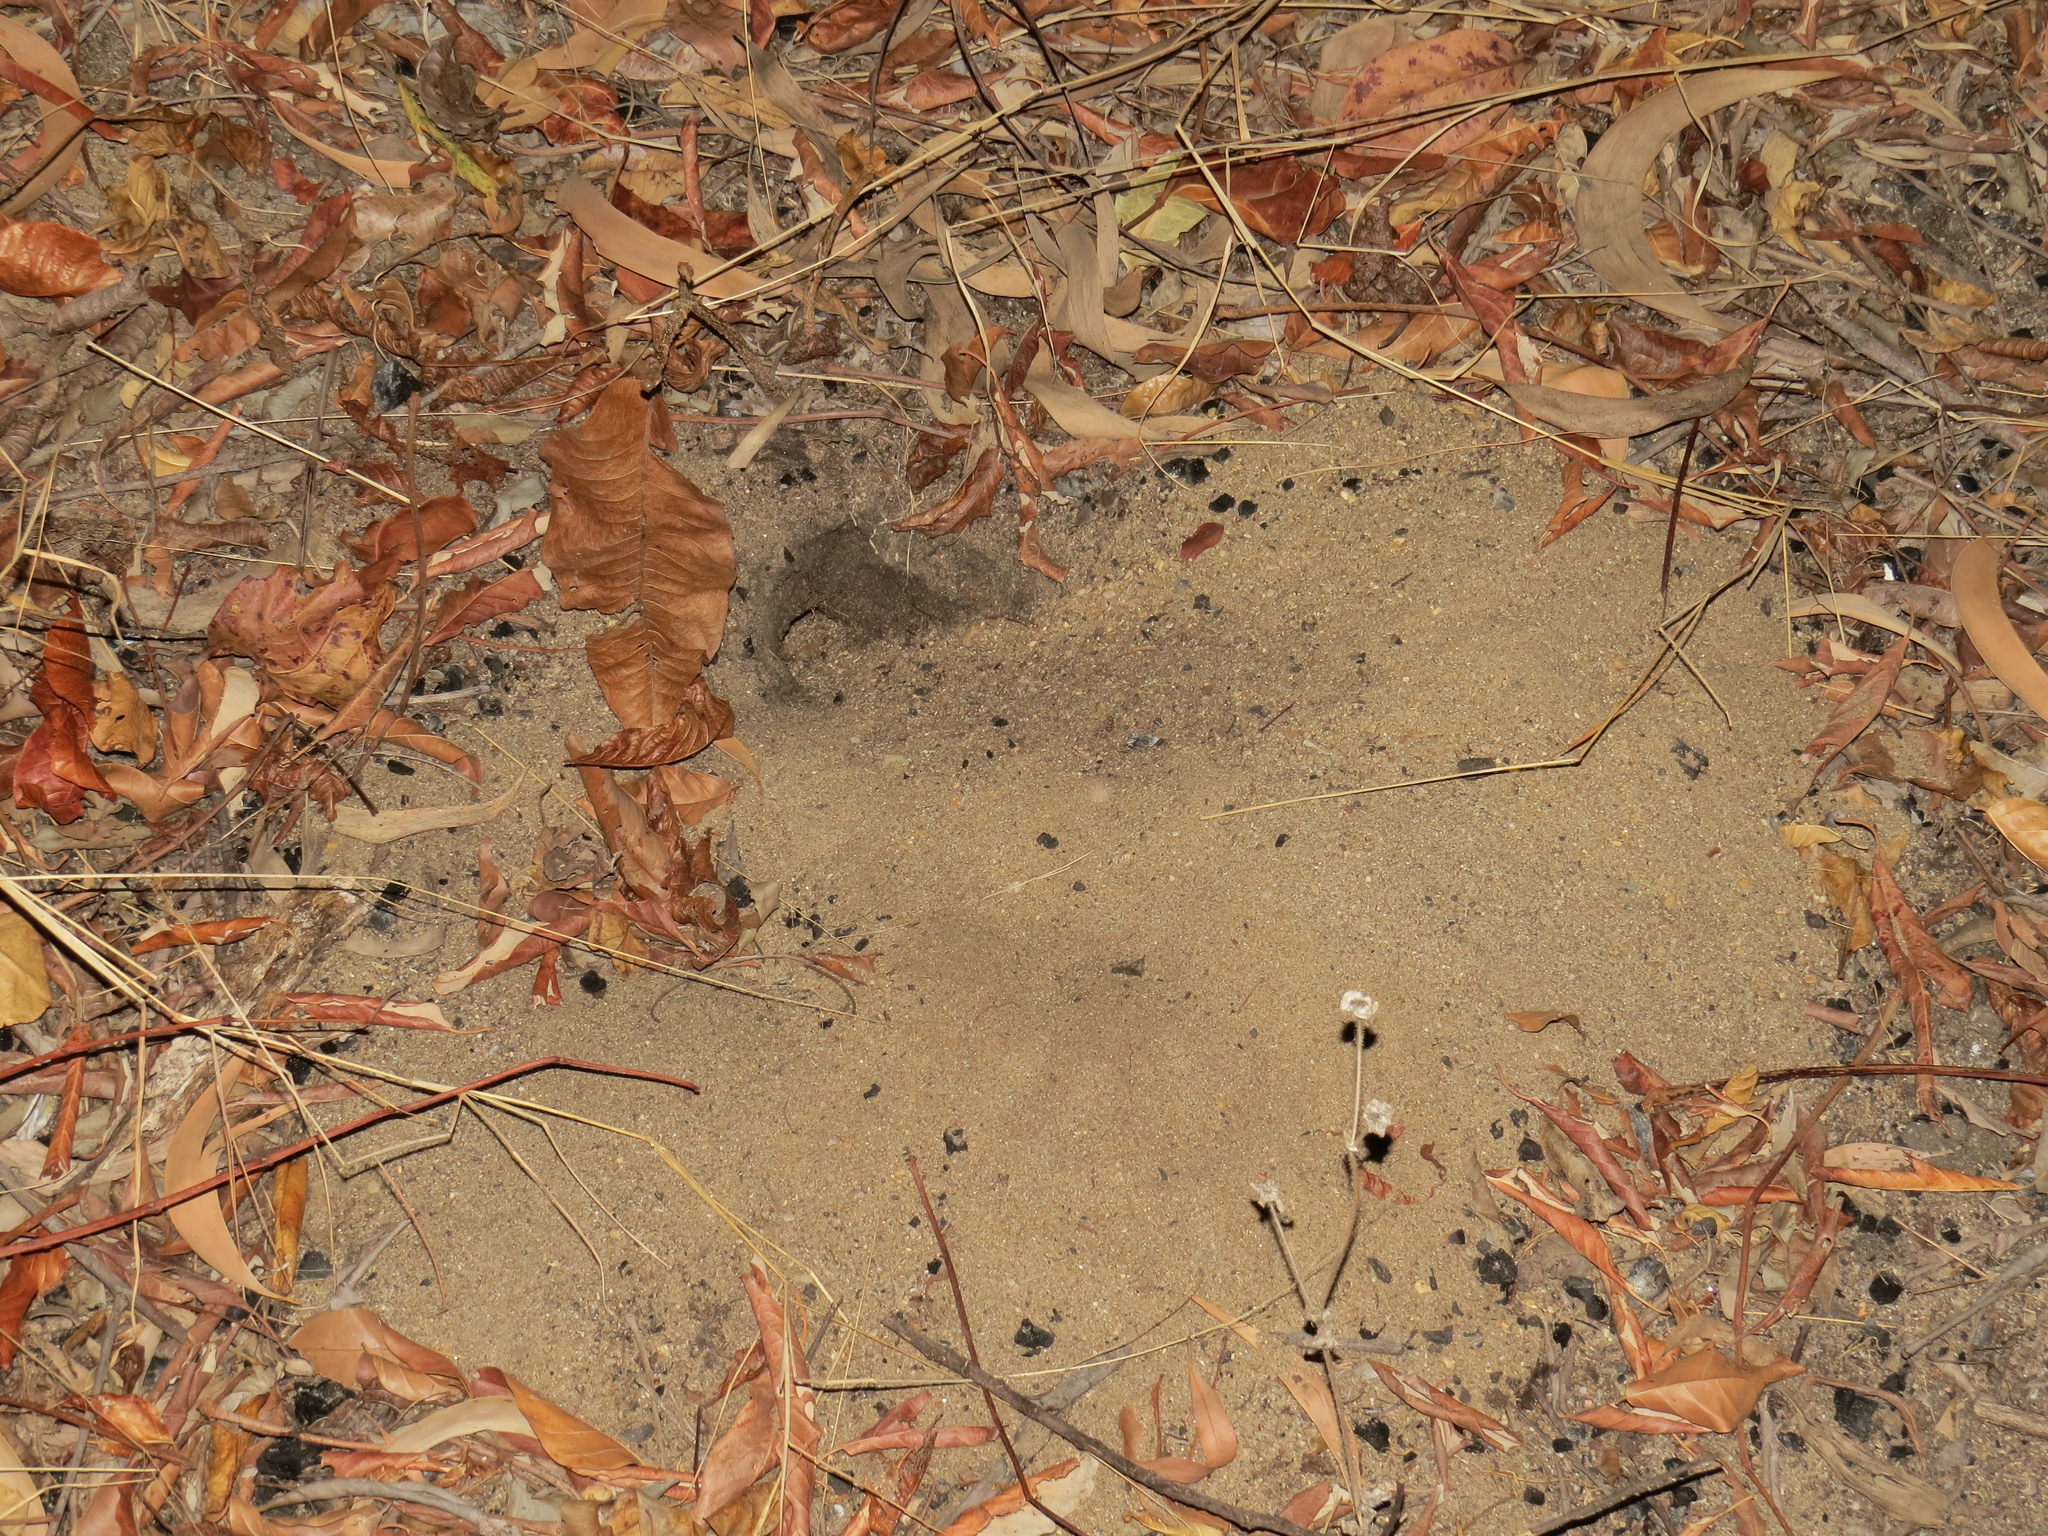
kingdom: Animalia
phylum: Arthropoda
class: Malacostraca
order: Decapoda
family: Ocypodidae
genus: Ocypode
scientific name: Ocypode cordimana
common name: Smooth-eyed ghost crab
